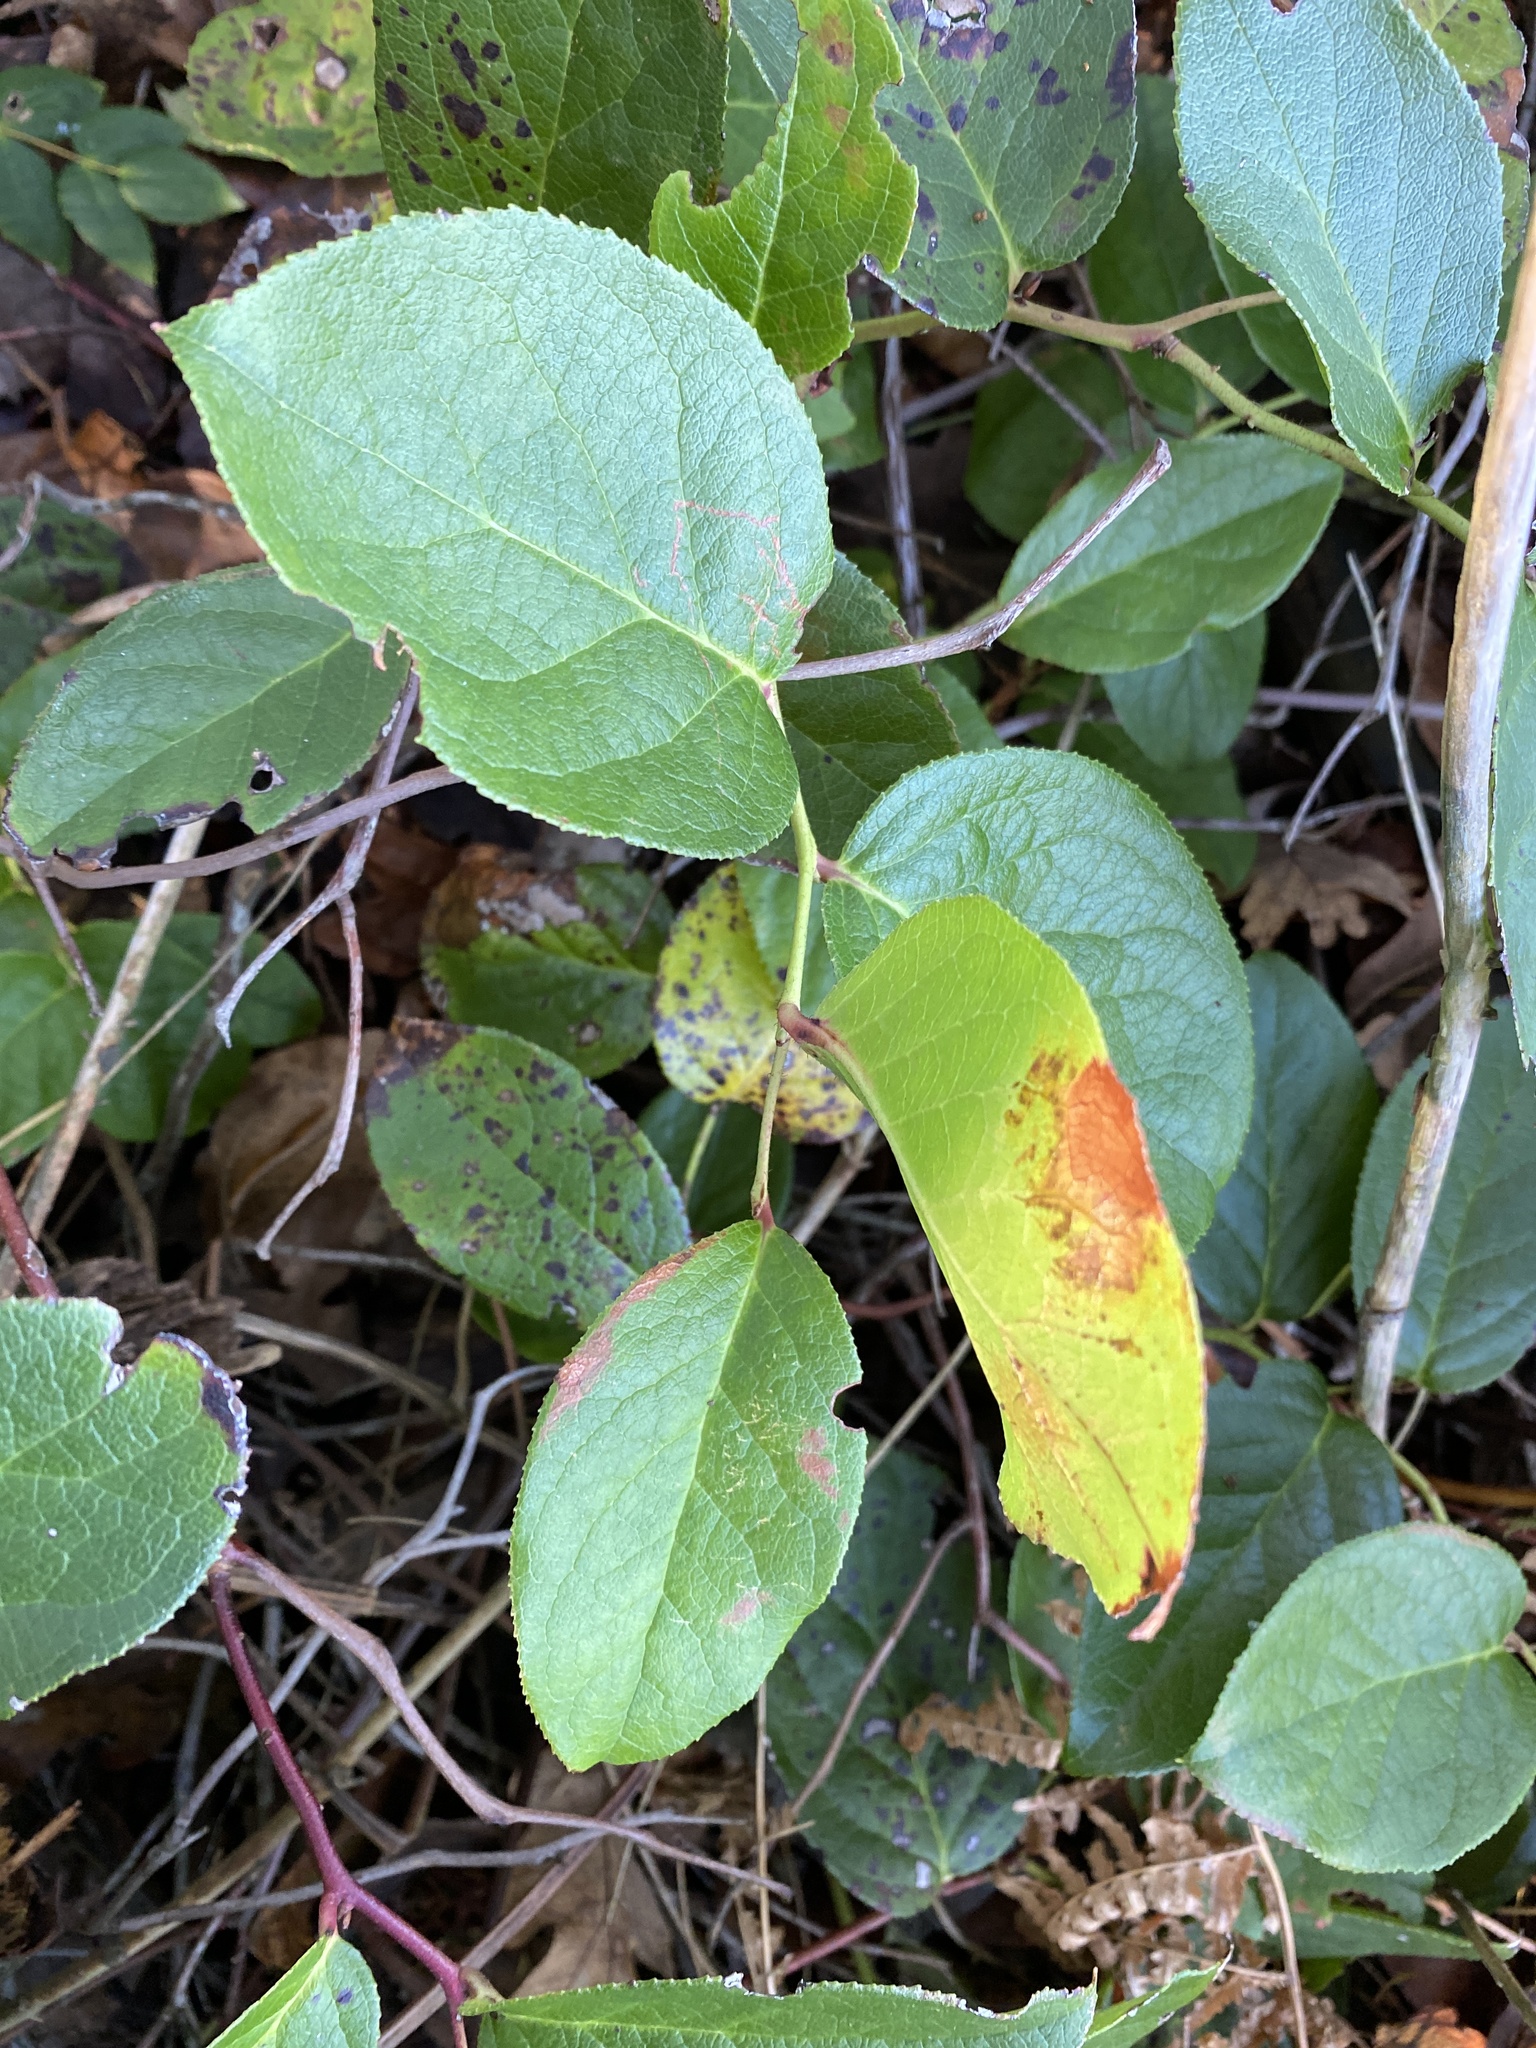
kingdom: Plantae
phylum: Tracheophyta
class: Magnoliopsida
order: Ericales
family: Ericaceae
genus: Gaultheria
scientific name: Gaultheria shallon
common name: Shallon
